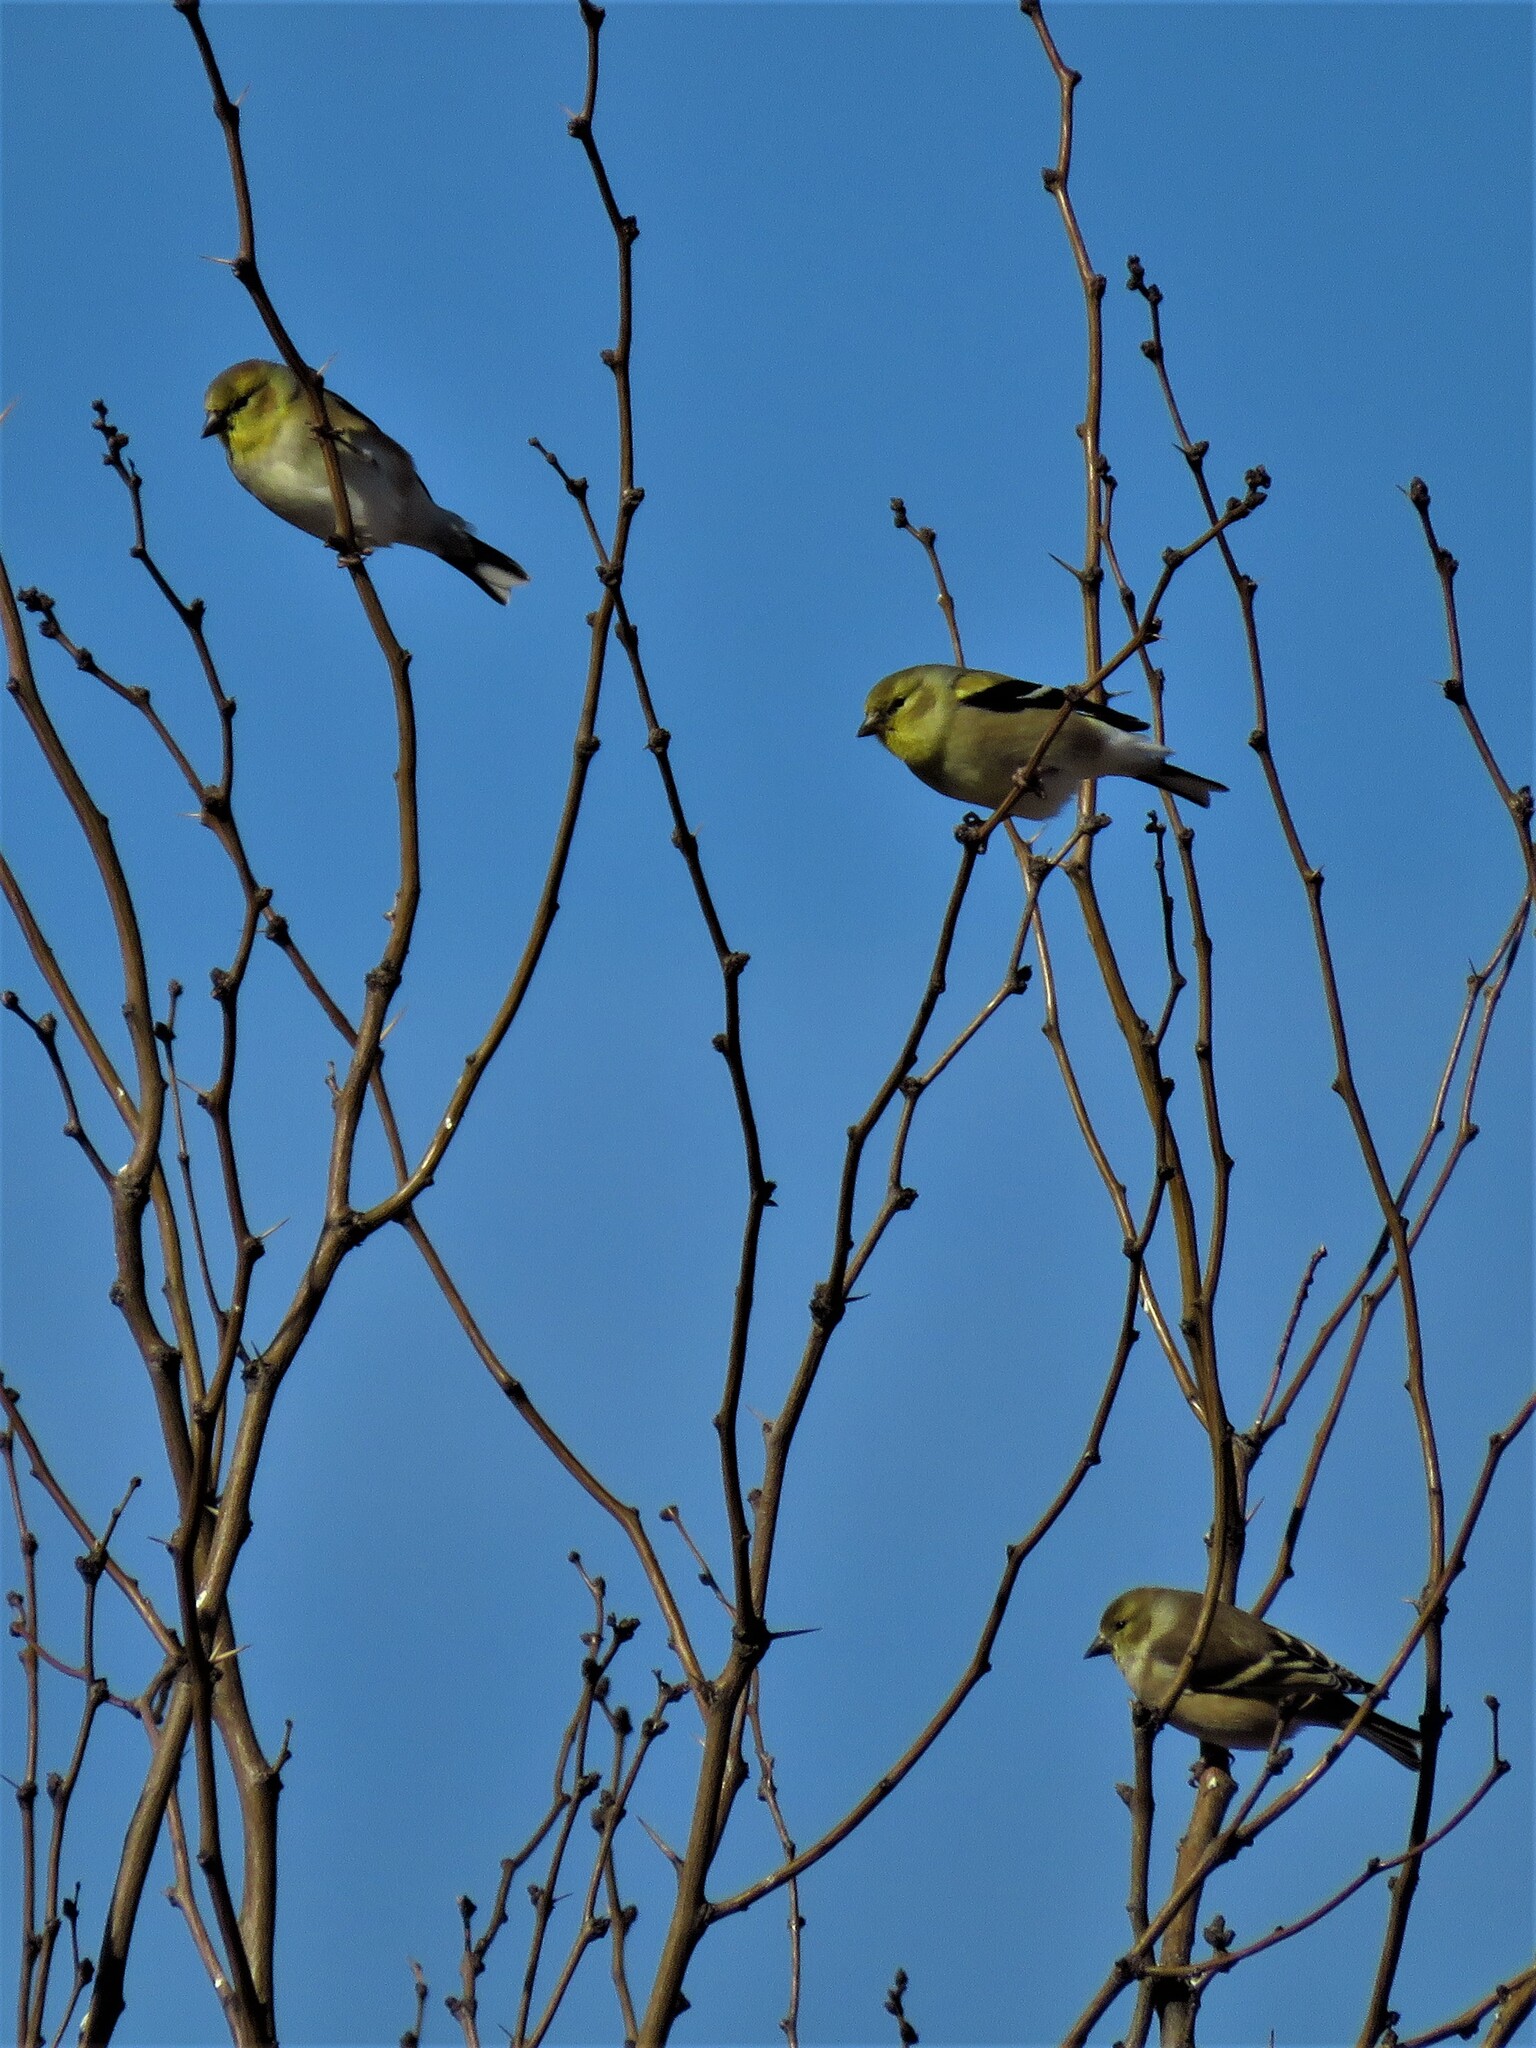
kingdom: Animalia
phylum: Chordata
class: Aves
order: Passeriformes
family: Fringillidae
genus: Spinus
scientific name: Spinus tristis
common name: American goldfinch
